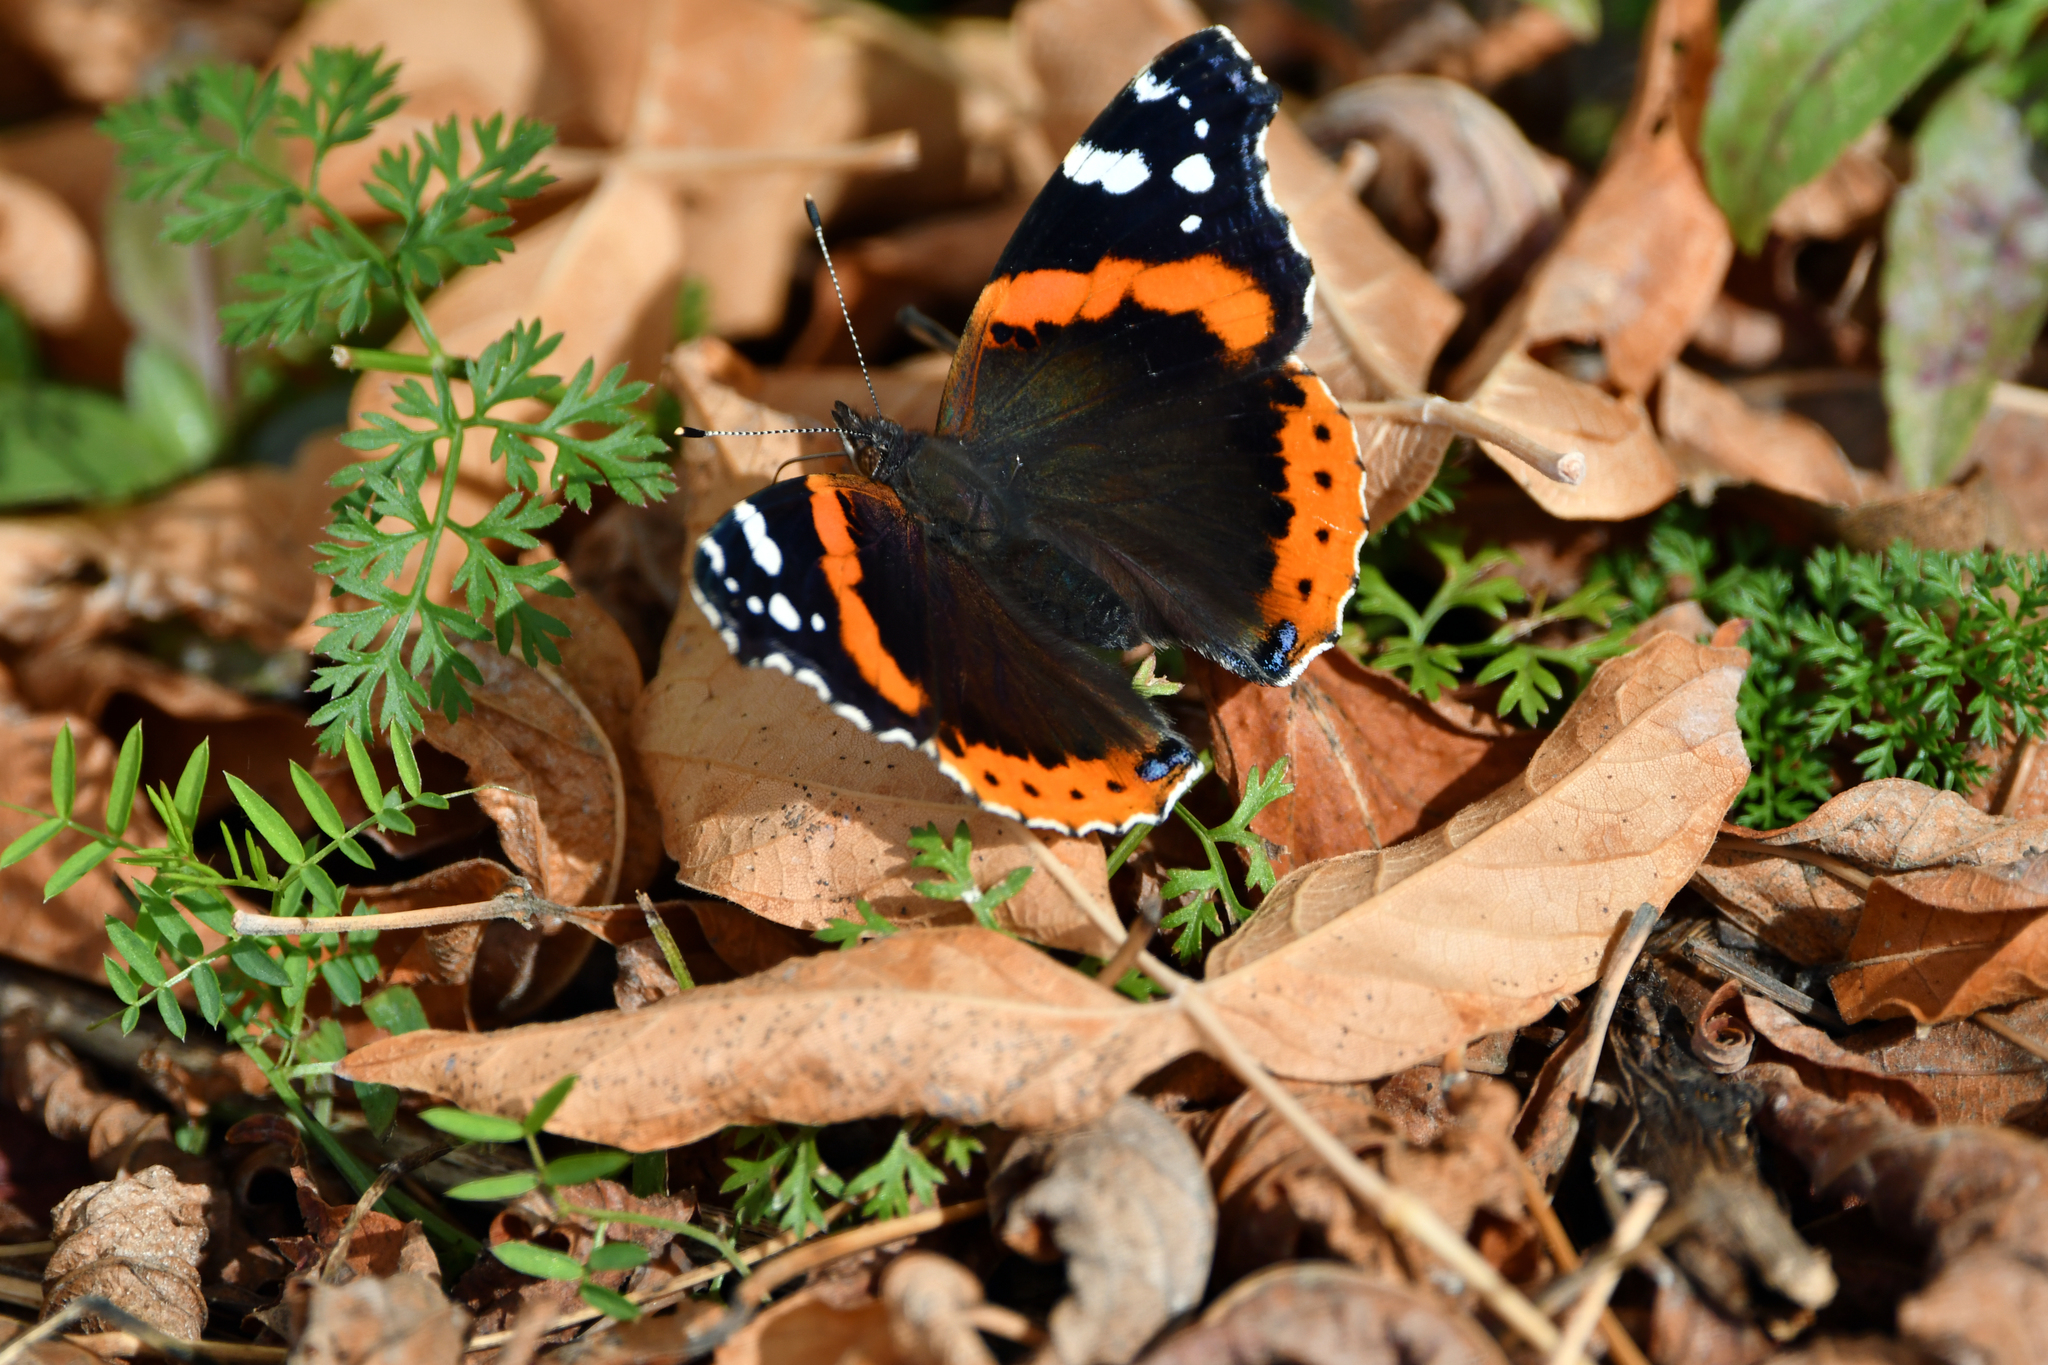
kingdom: Animalia
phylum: Arthropoda
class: Insecta
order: Lepidoptera
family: Nymphalidae
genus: Vanessa
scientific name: Vanessa atalanta
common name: Red admiral
